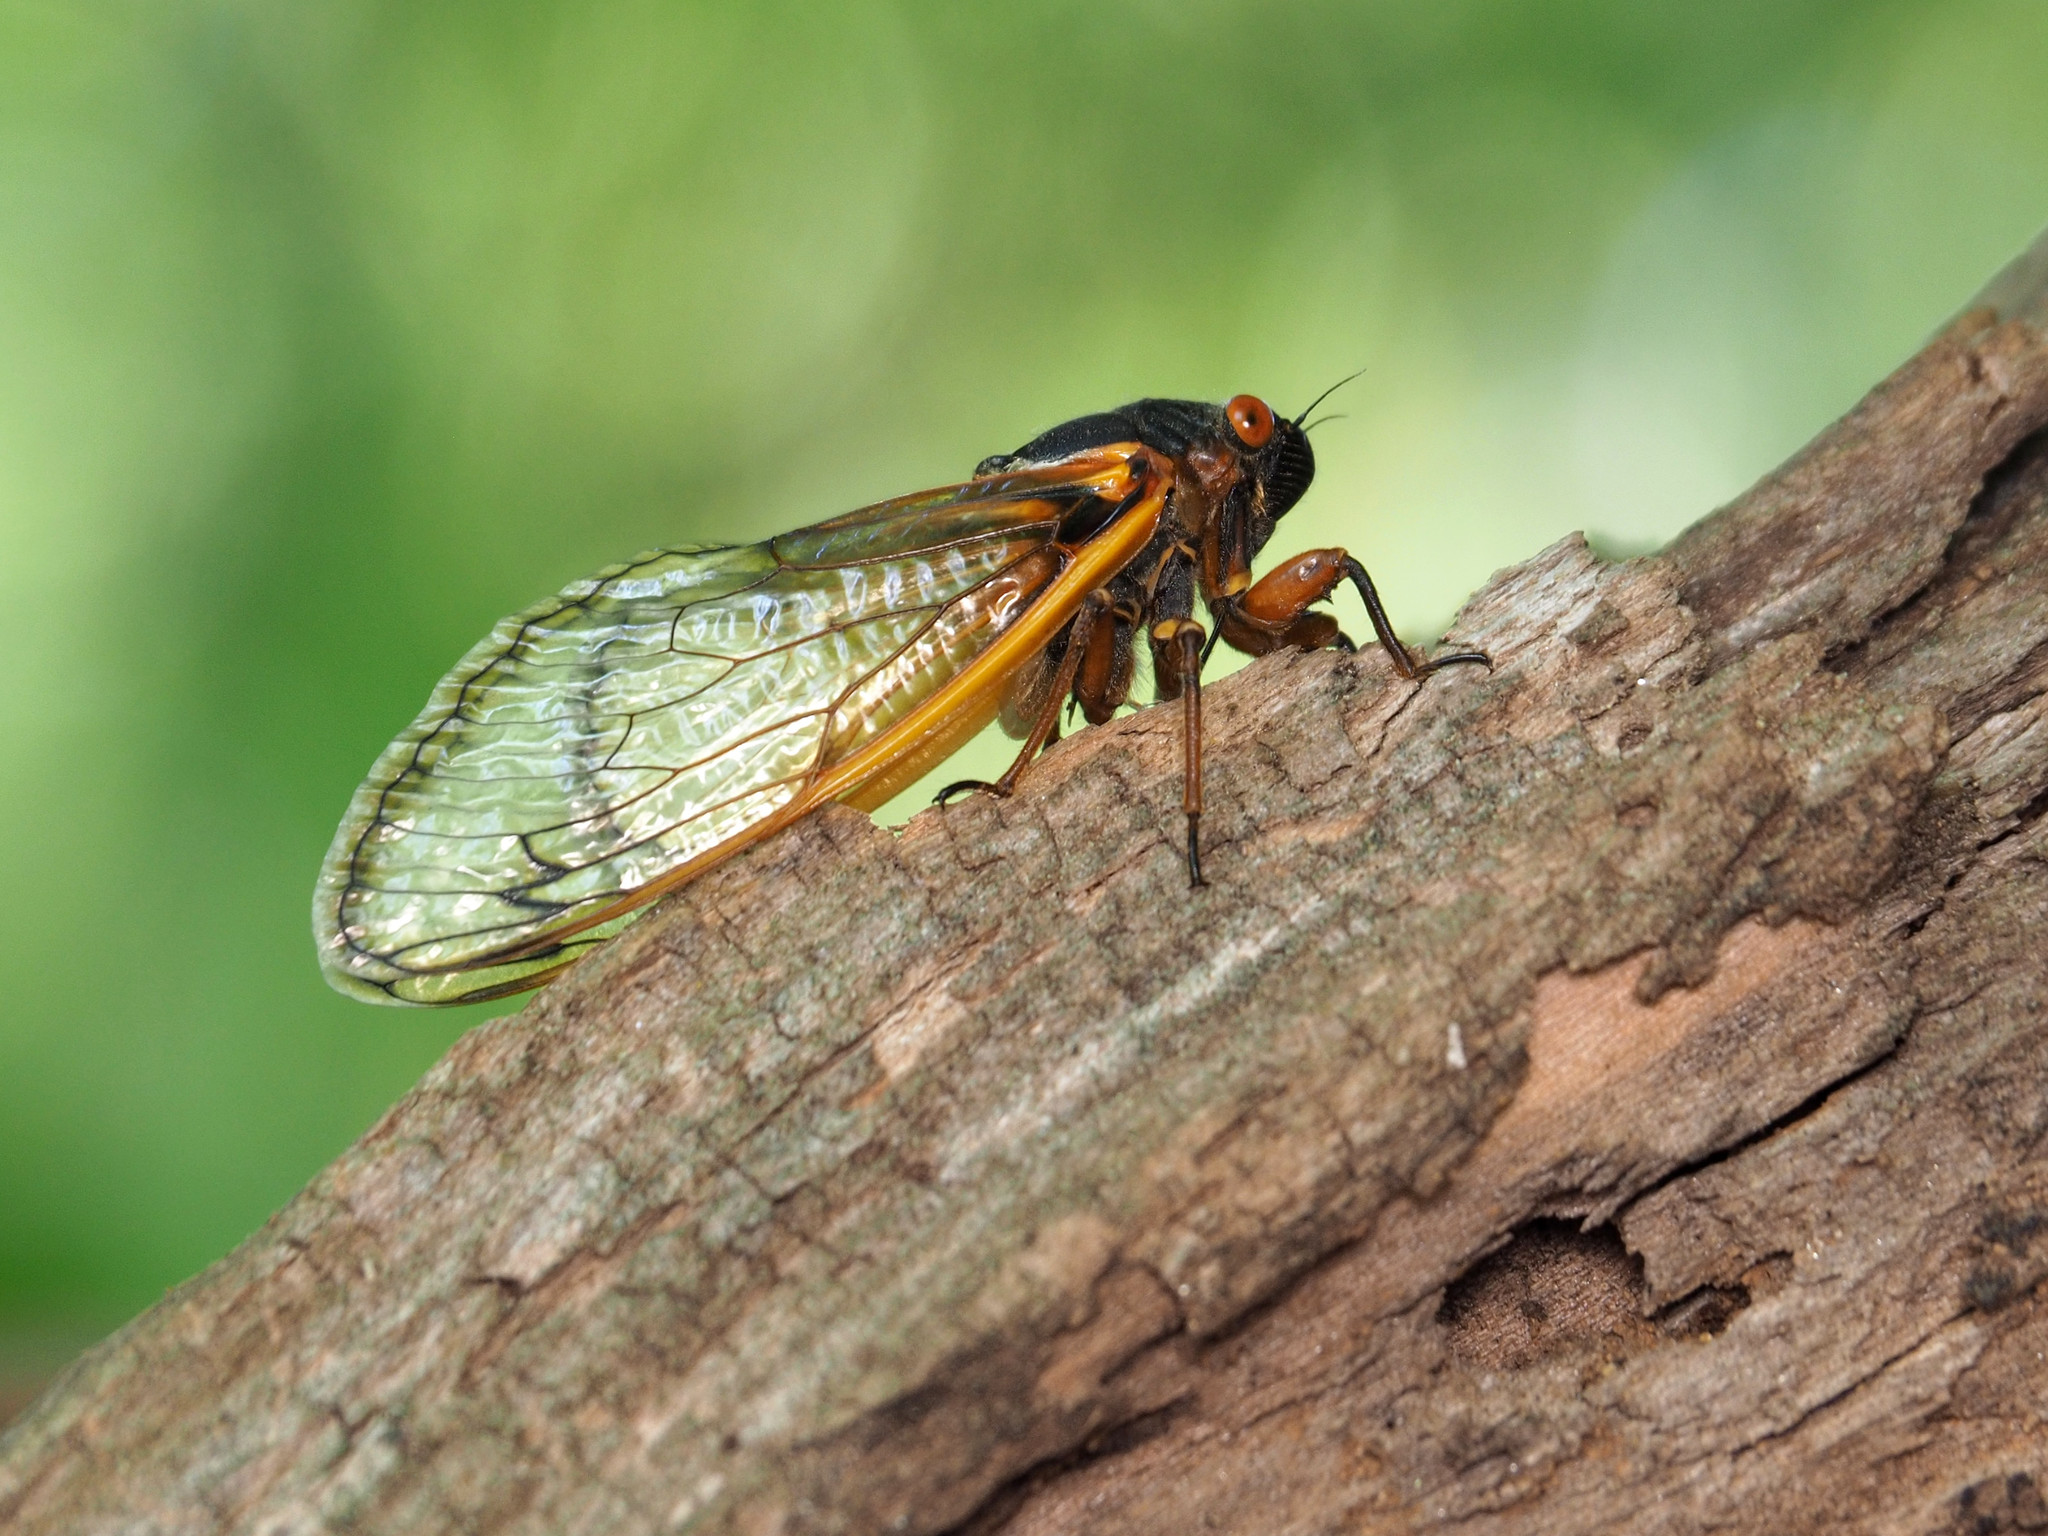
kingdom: Animalia
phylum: Arthropoda
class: Insecta
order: Hemiptera
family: Cicadidae
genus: Magicicada
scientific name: Magicicada septendecim
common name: Periodical cicada
